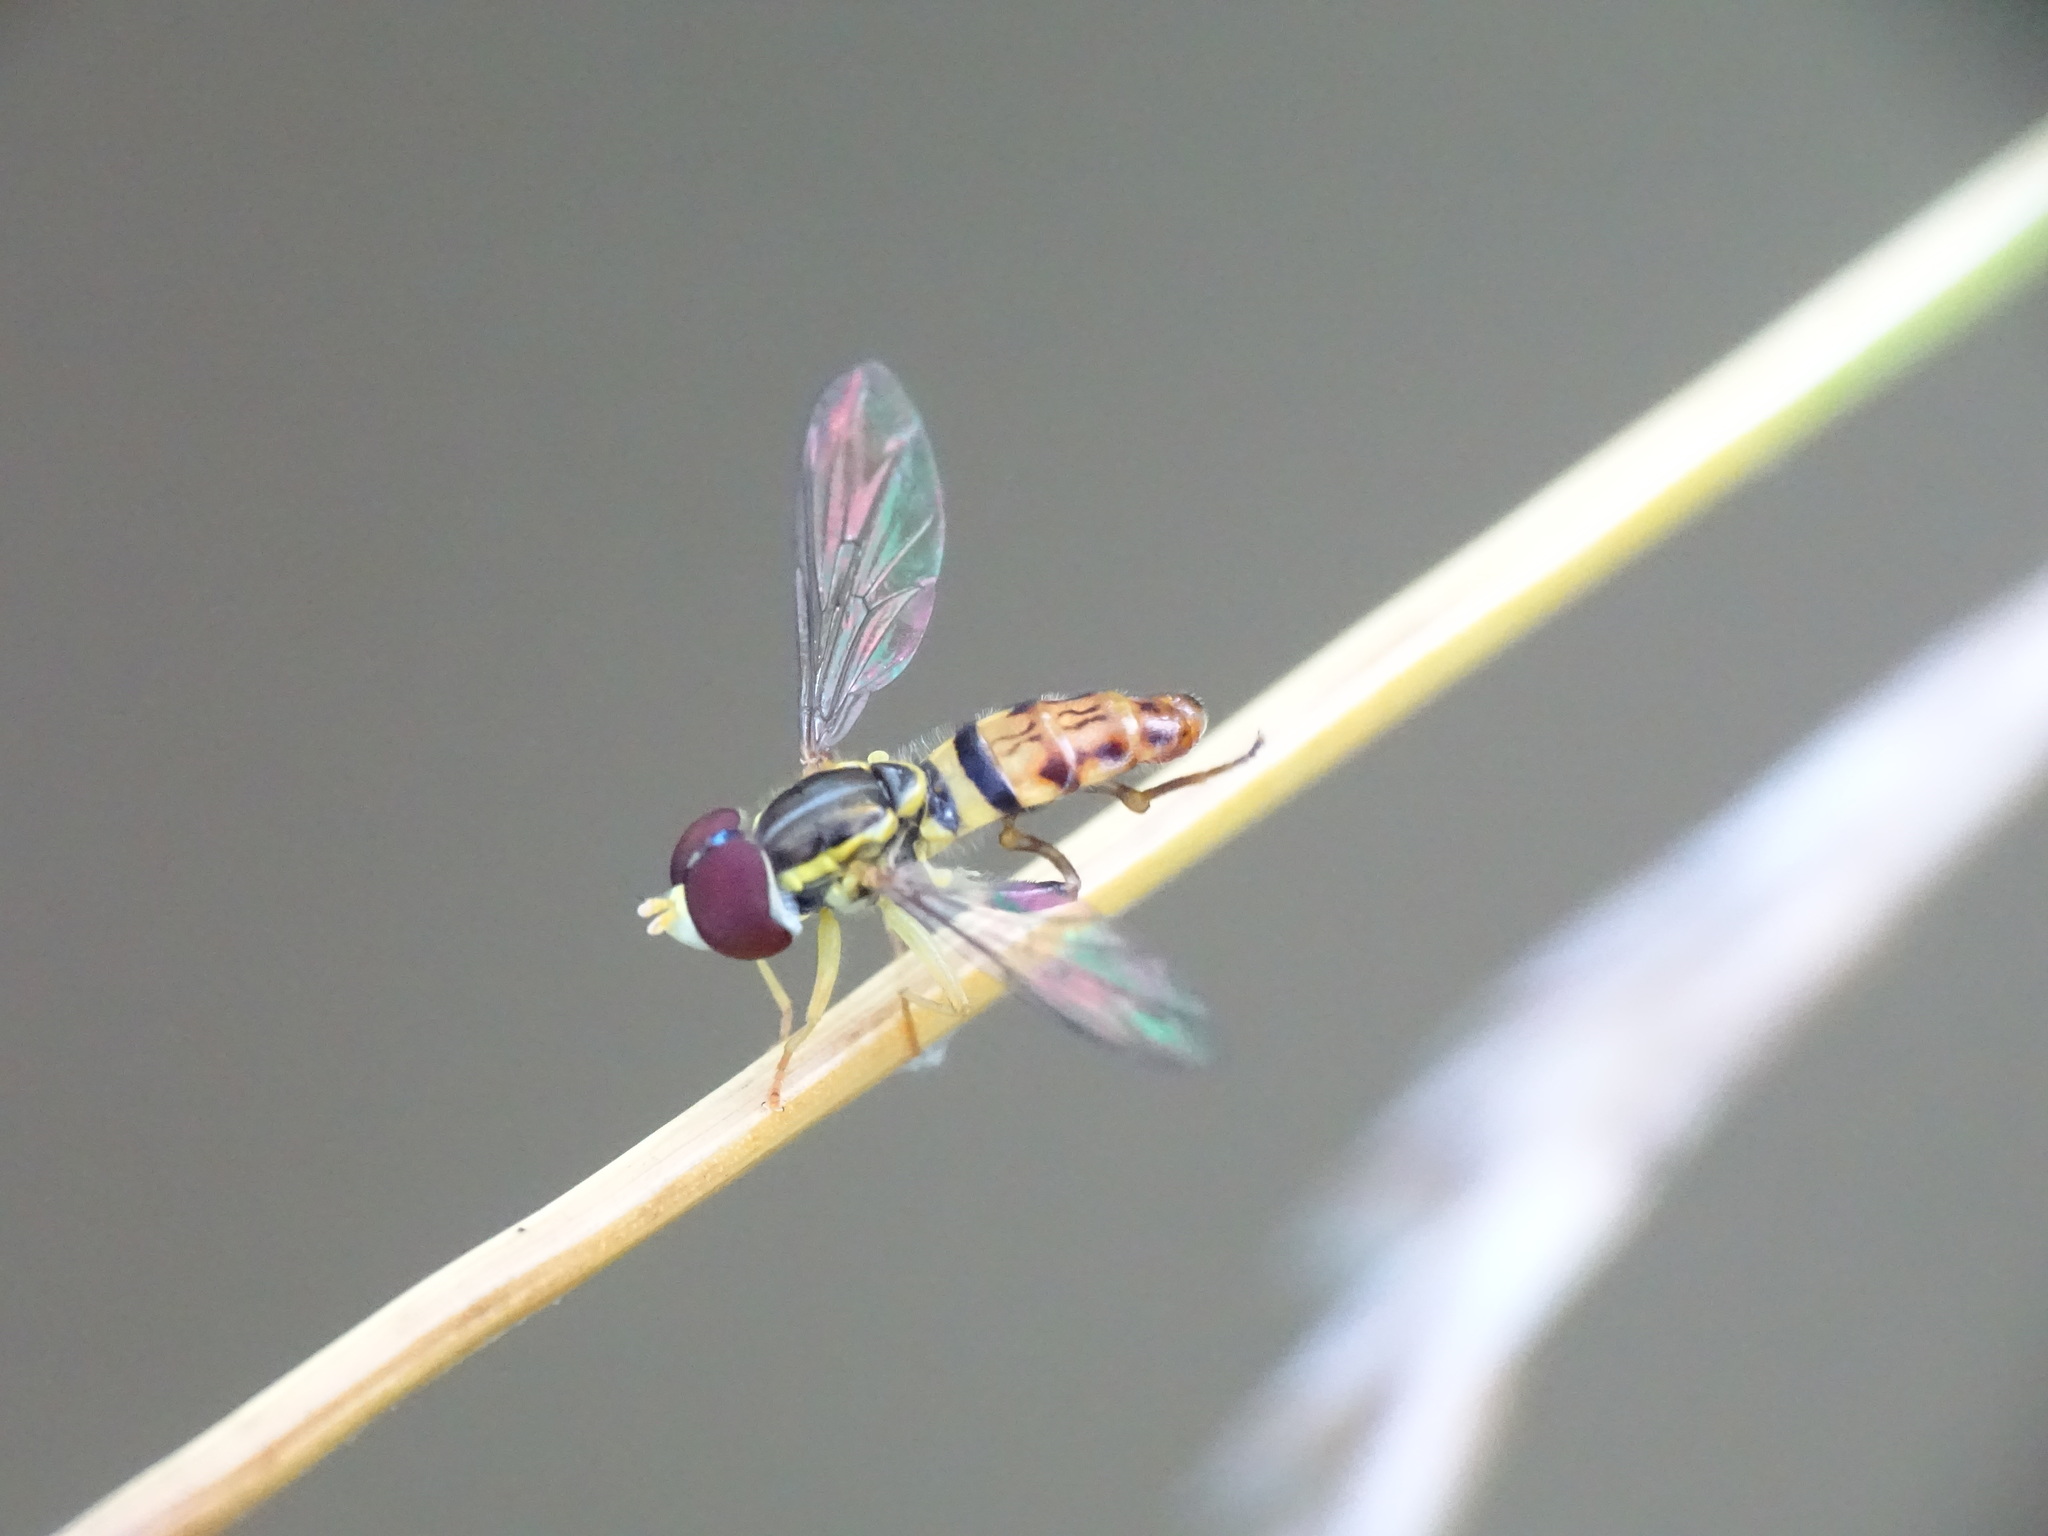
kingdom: Animalia
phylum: Arthropoda
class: Insecta
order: Diptera
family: Syrphidae
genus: Toxomerus
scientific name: Toxomerus geminatus
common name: Eastern calligrapher
